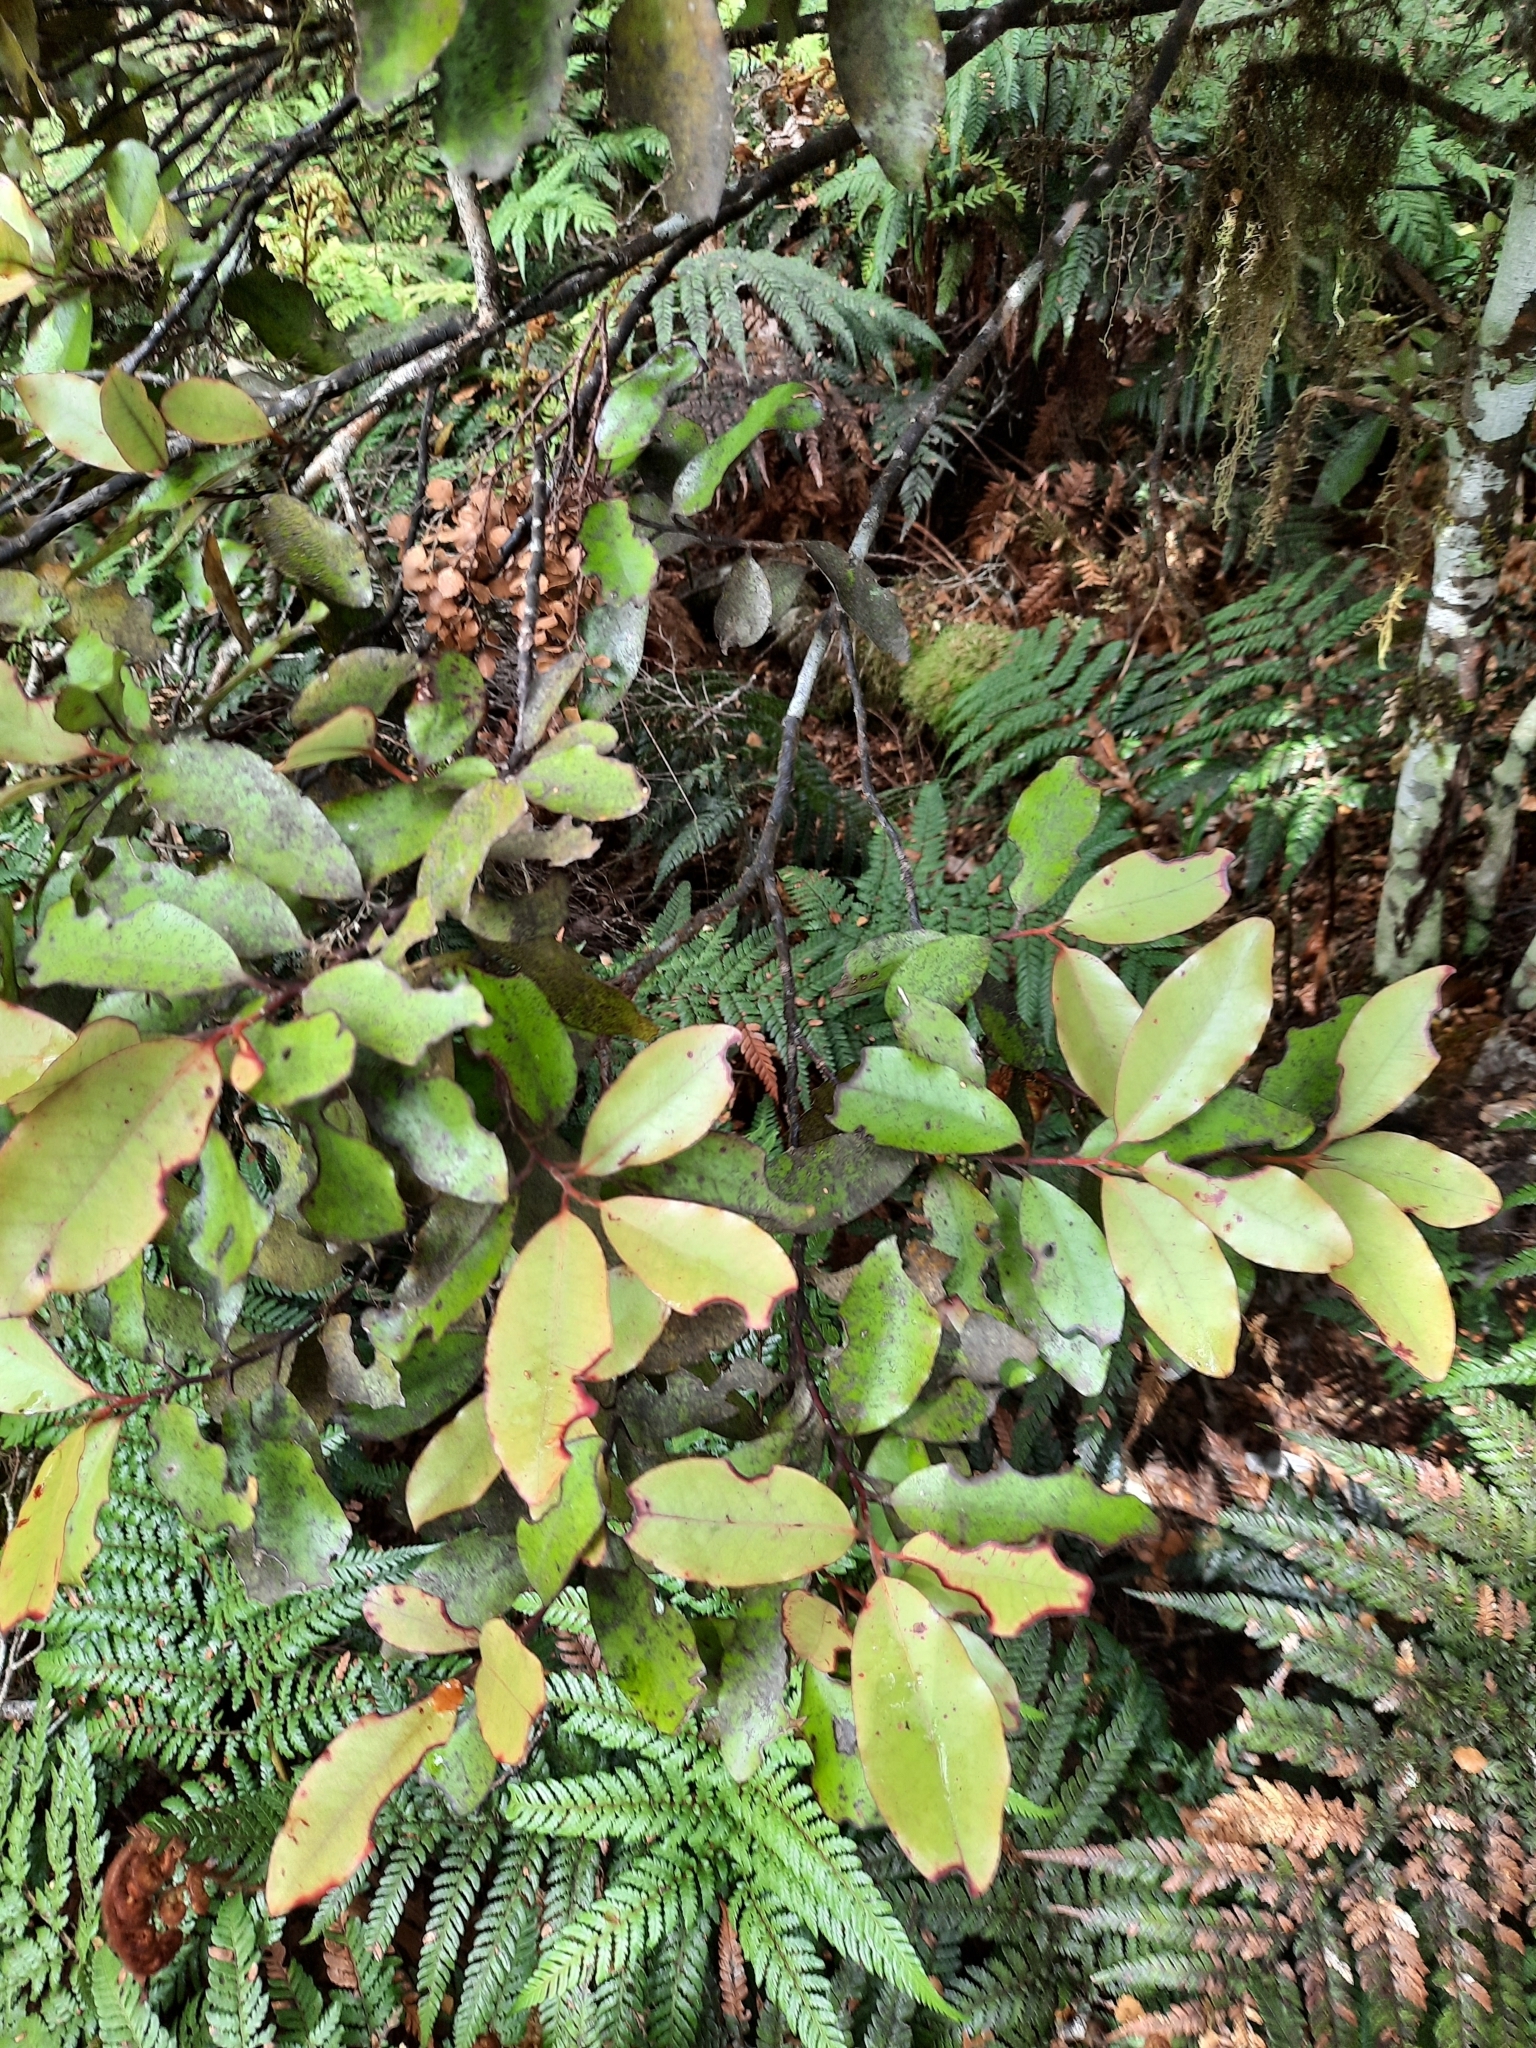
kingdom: Plantae
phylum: Tracheophyta
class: Magnoliopsida
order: Canellales
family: Winteraceae
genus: Pseudowintera
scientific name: Pseudowintera colorata
